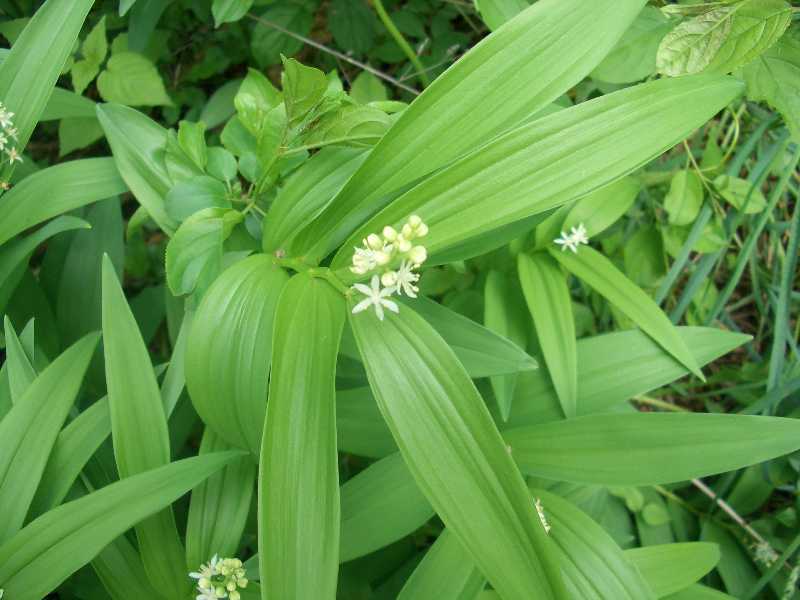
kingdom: Plantae
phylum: Tracheophyta
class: Liliopsida
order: Asparagales
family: Asparagaceae
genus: Maianthemum
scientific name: Maianthemum stellatum
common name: Little false solomon's seal
